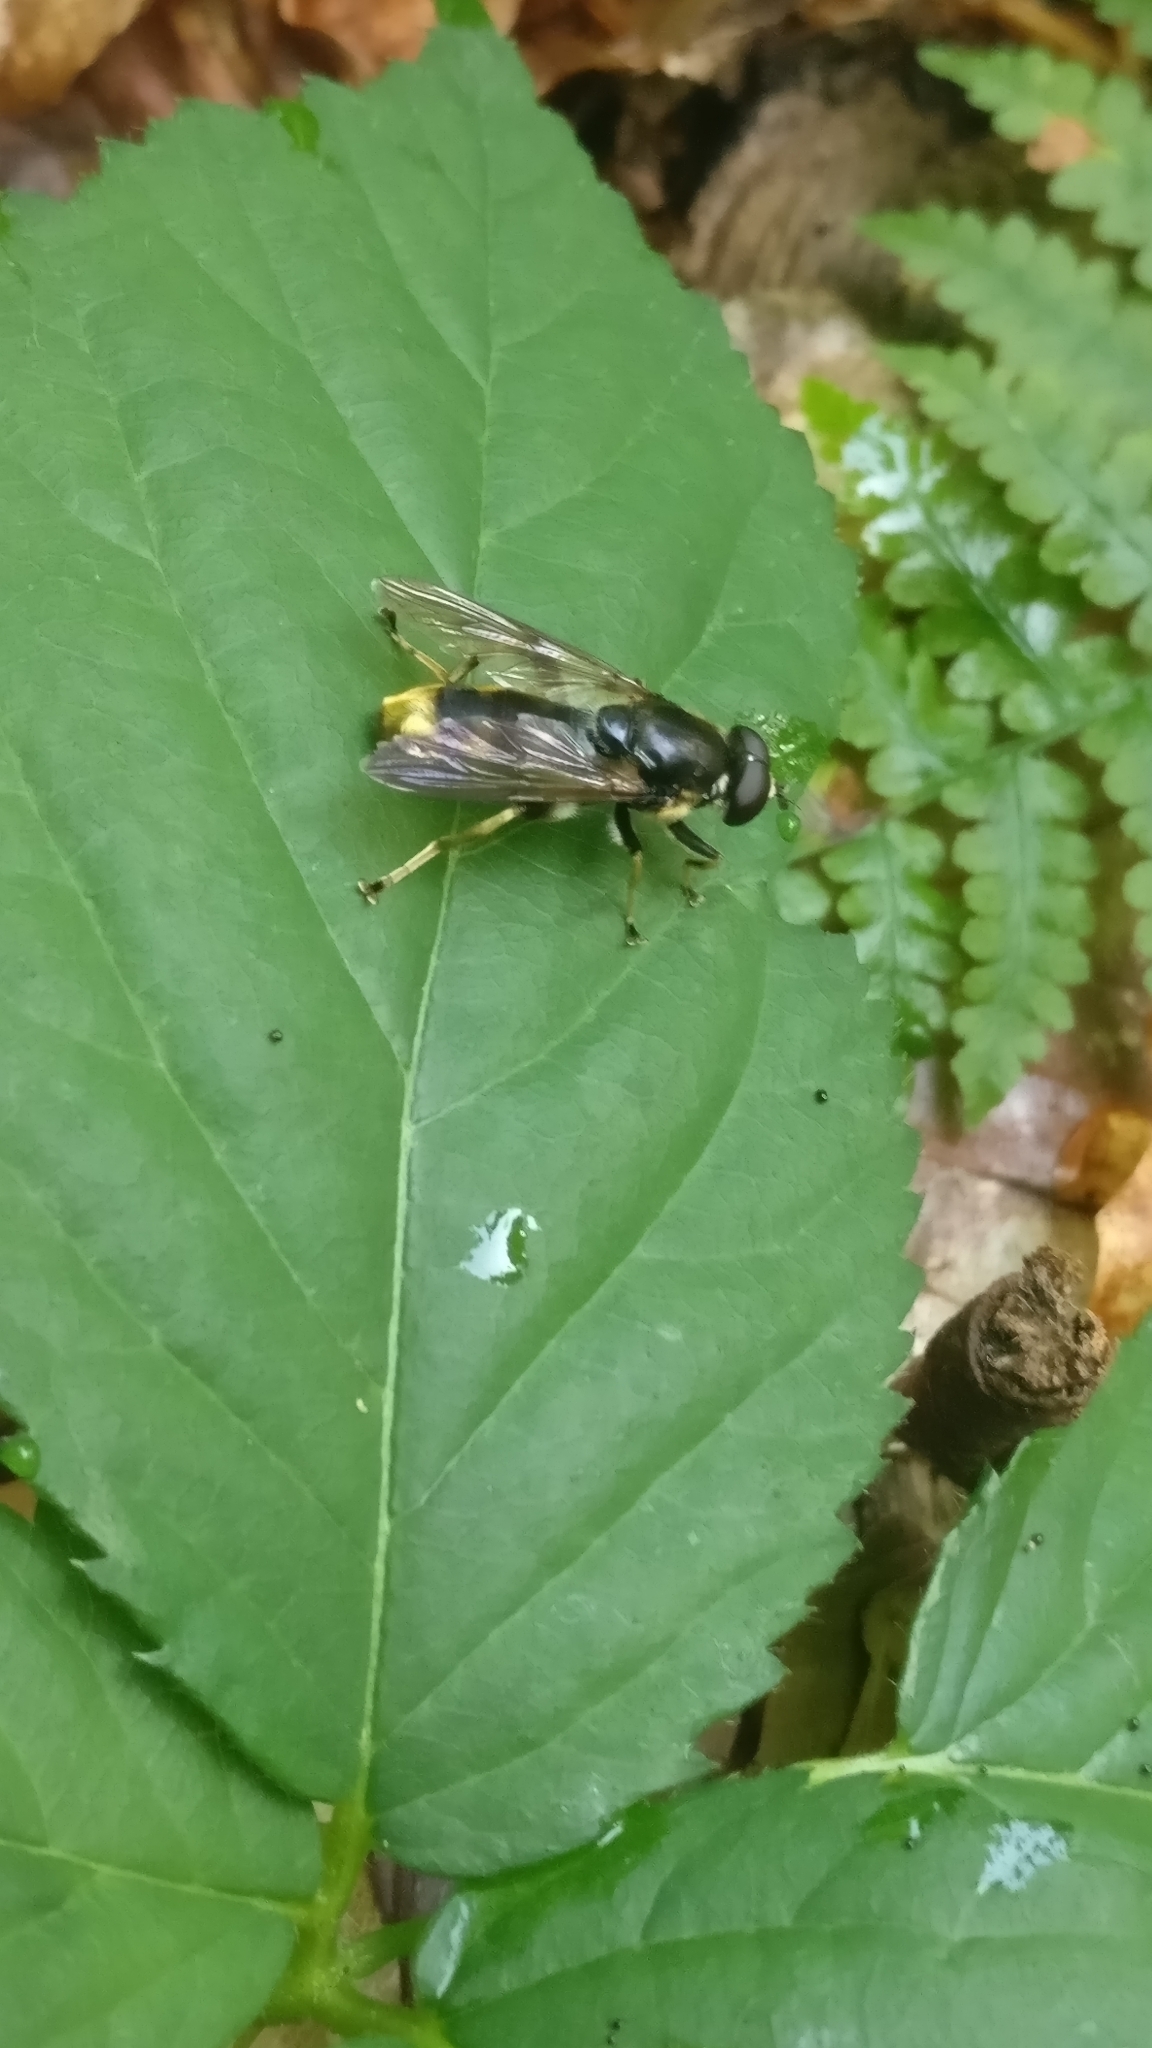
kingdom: Animalia
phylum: Arthropoda
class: Insecta
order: Diptera
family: Syrphidae
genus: Xylota
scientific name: Xylota sylvarum
